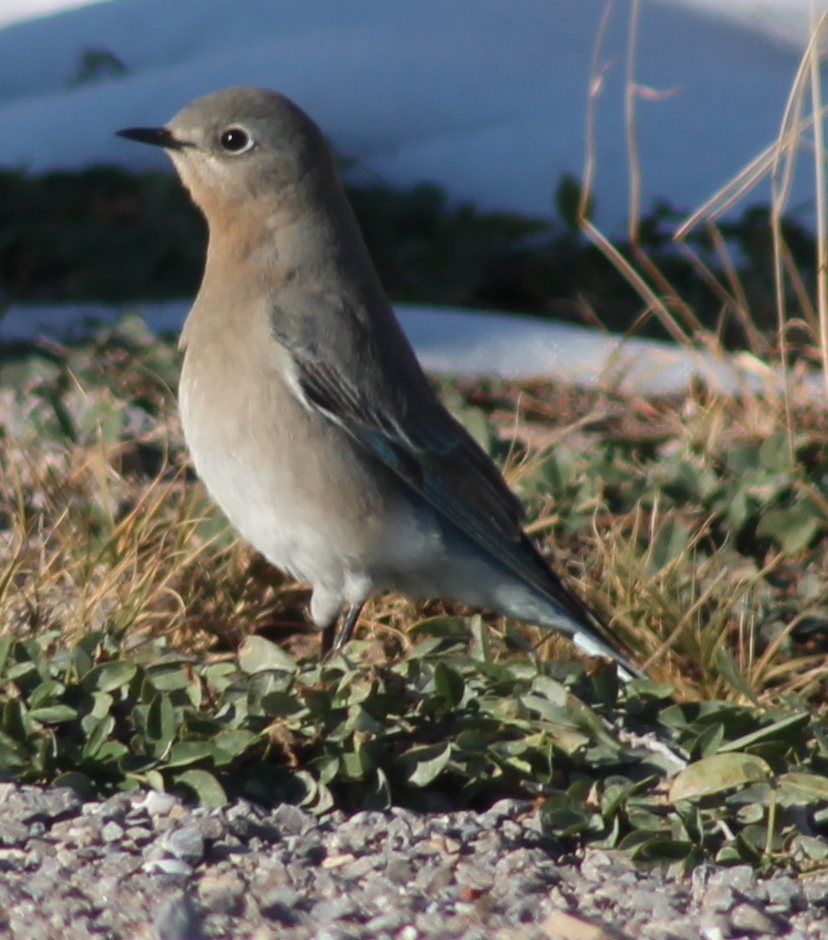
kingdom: Animalia
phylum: Chordata
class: Aves
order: Passeriformes
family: Turdidae
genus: Sialia
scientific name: Sialia currucoides
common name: Mountain bluebird
